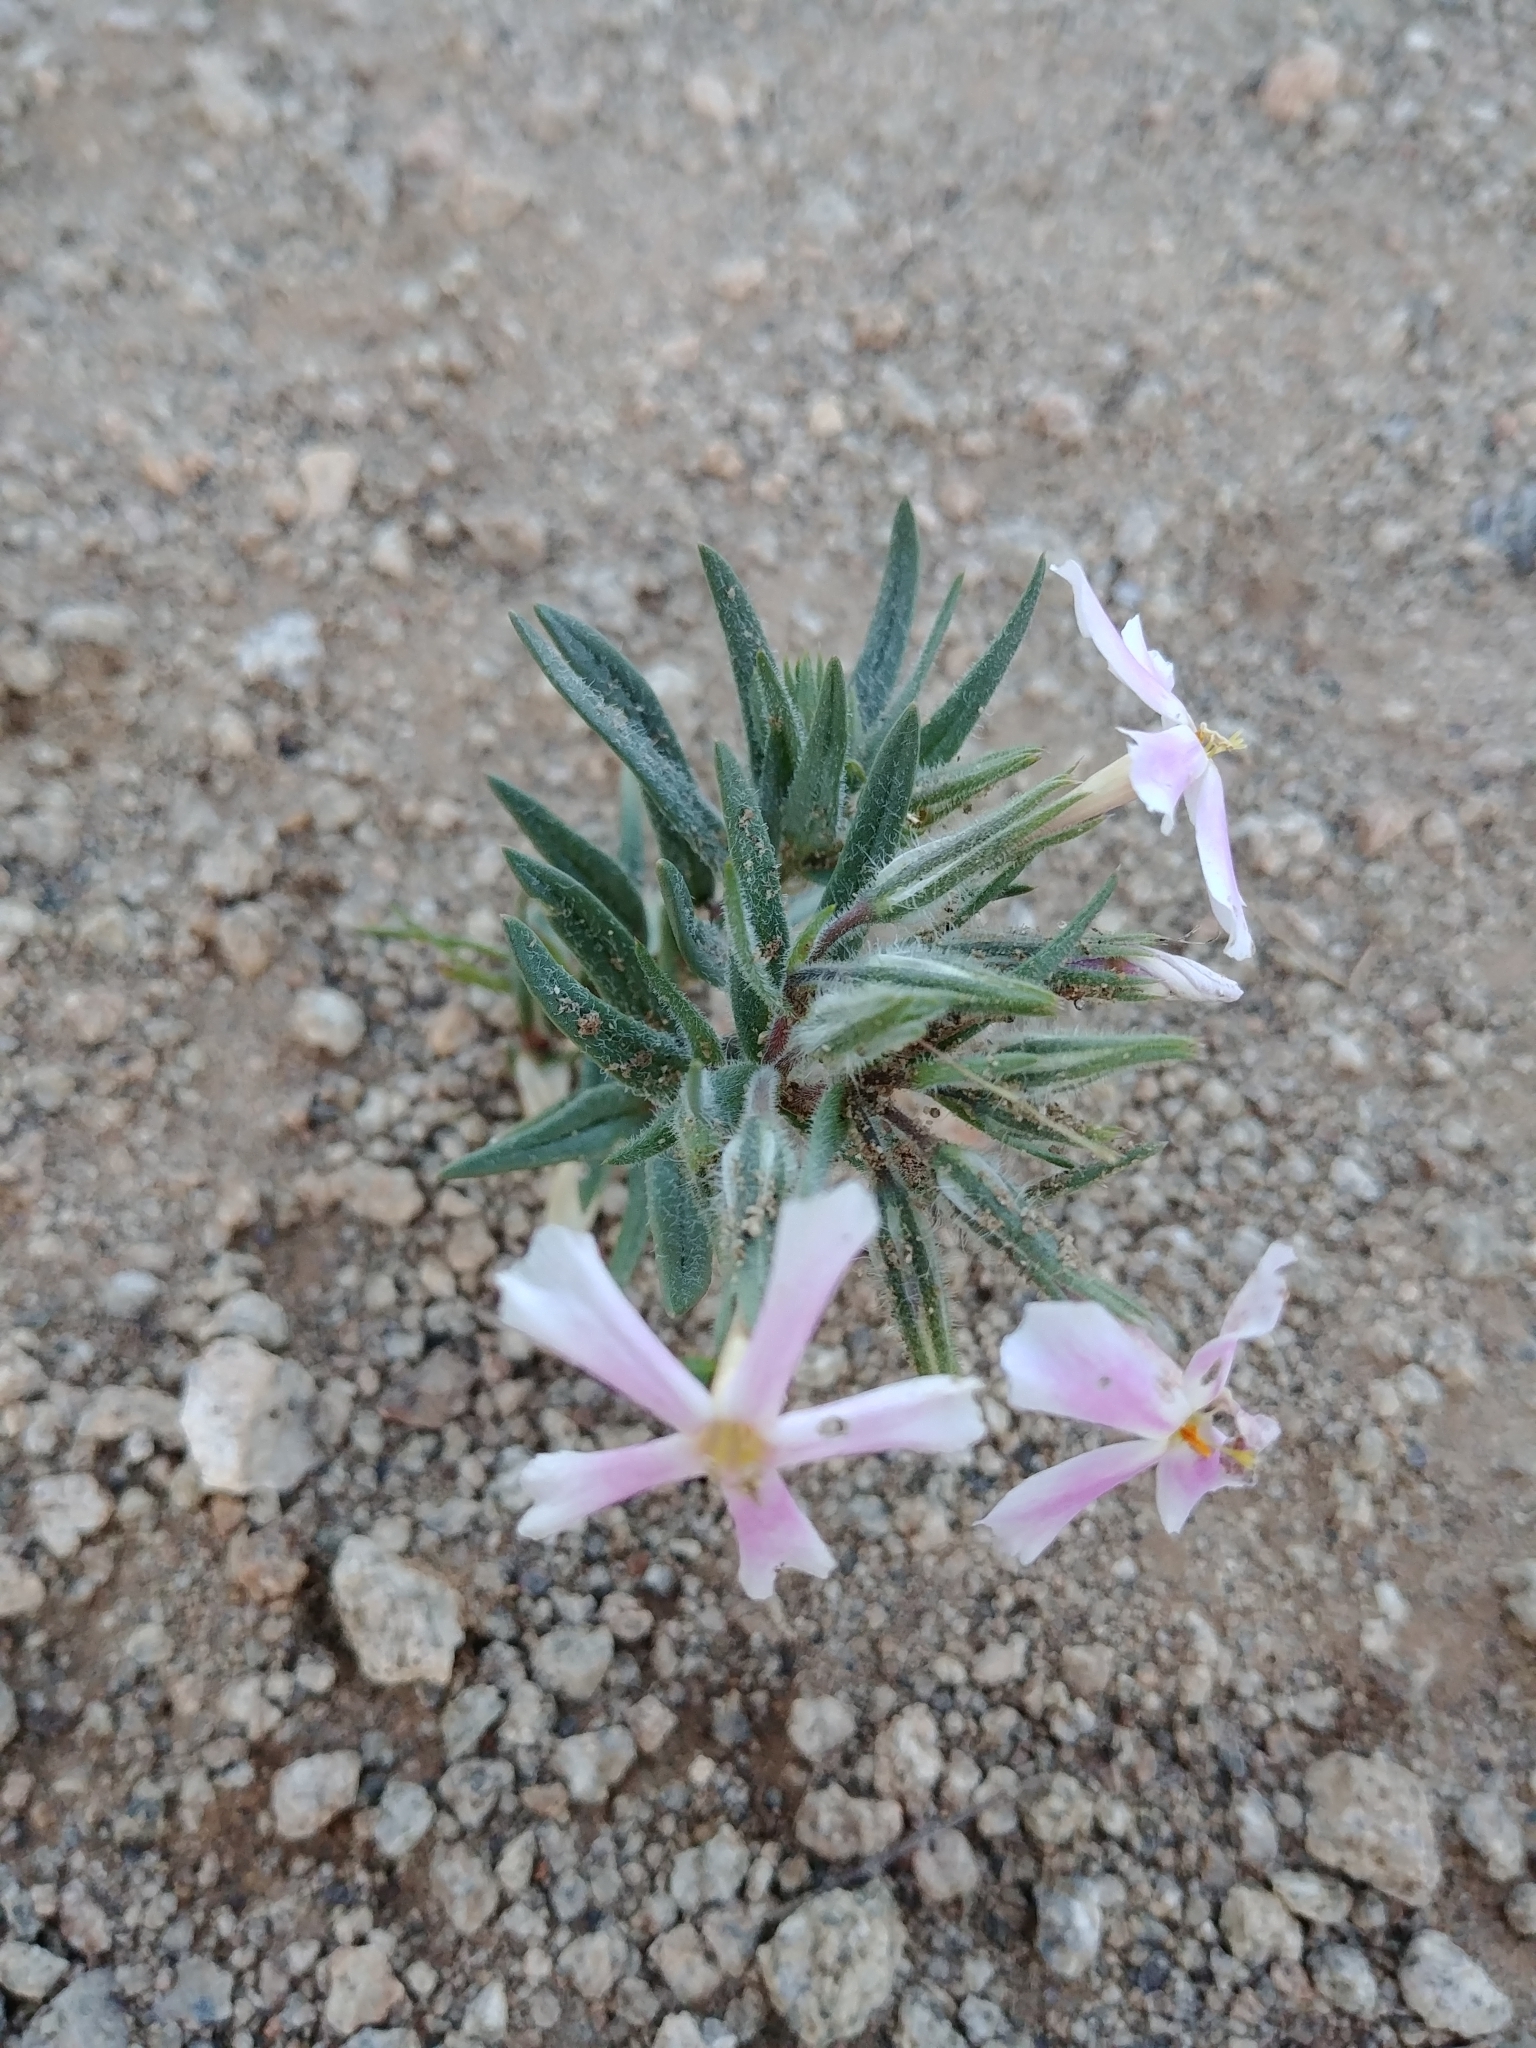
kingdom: Plantae
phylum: Tracheophyta
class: Magnoliopsida
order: Ericales
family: Polemoniaceae
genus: Phlox
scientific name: Phlox longifolia
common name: Longleaf phlox
